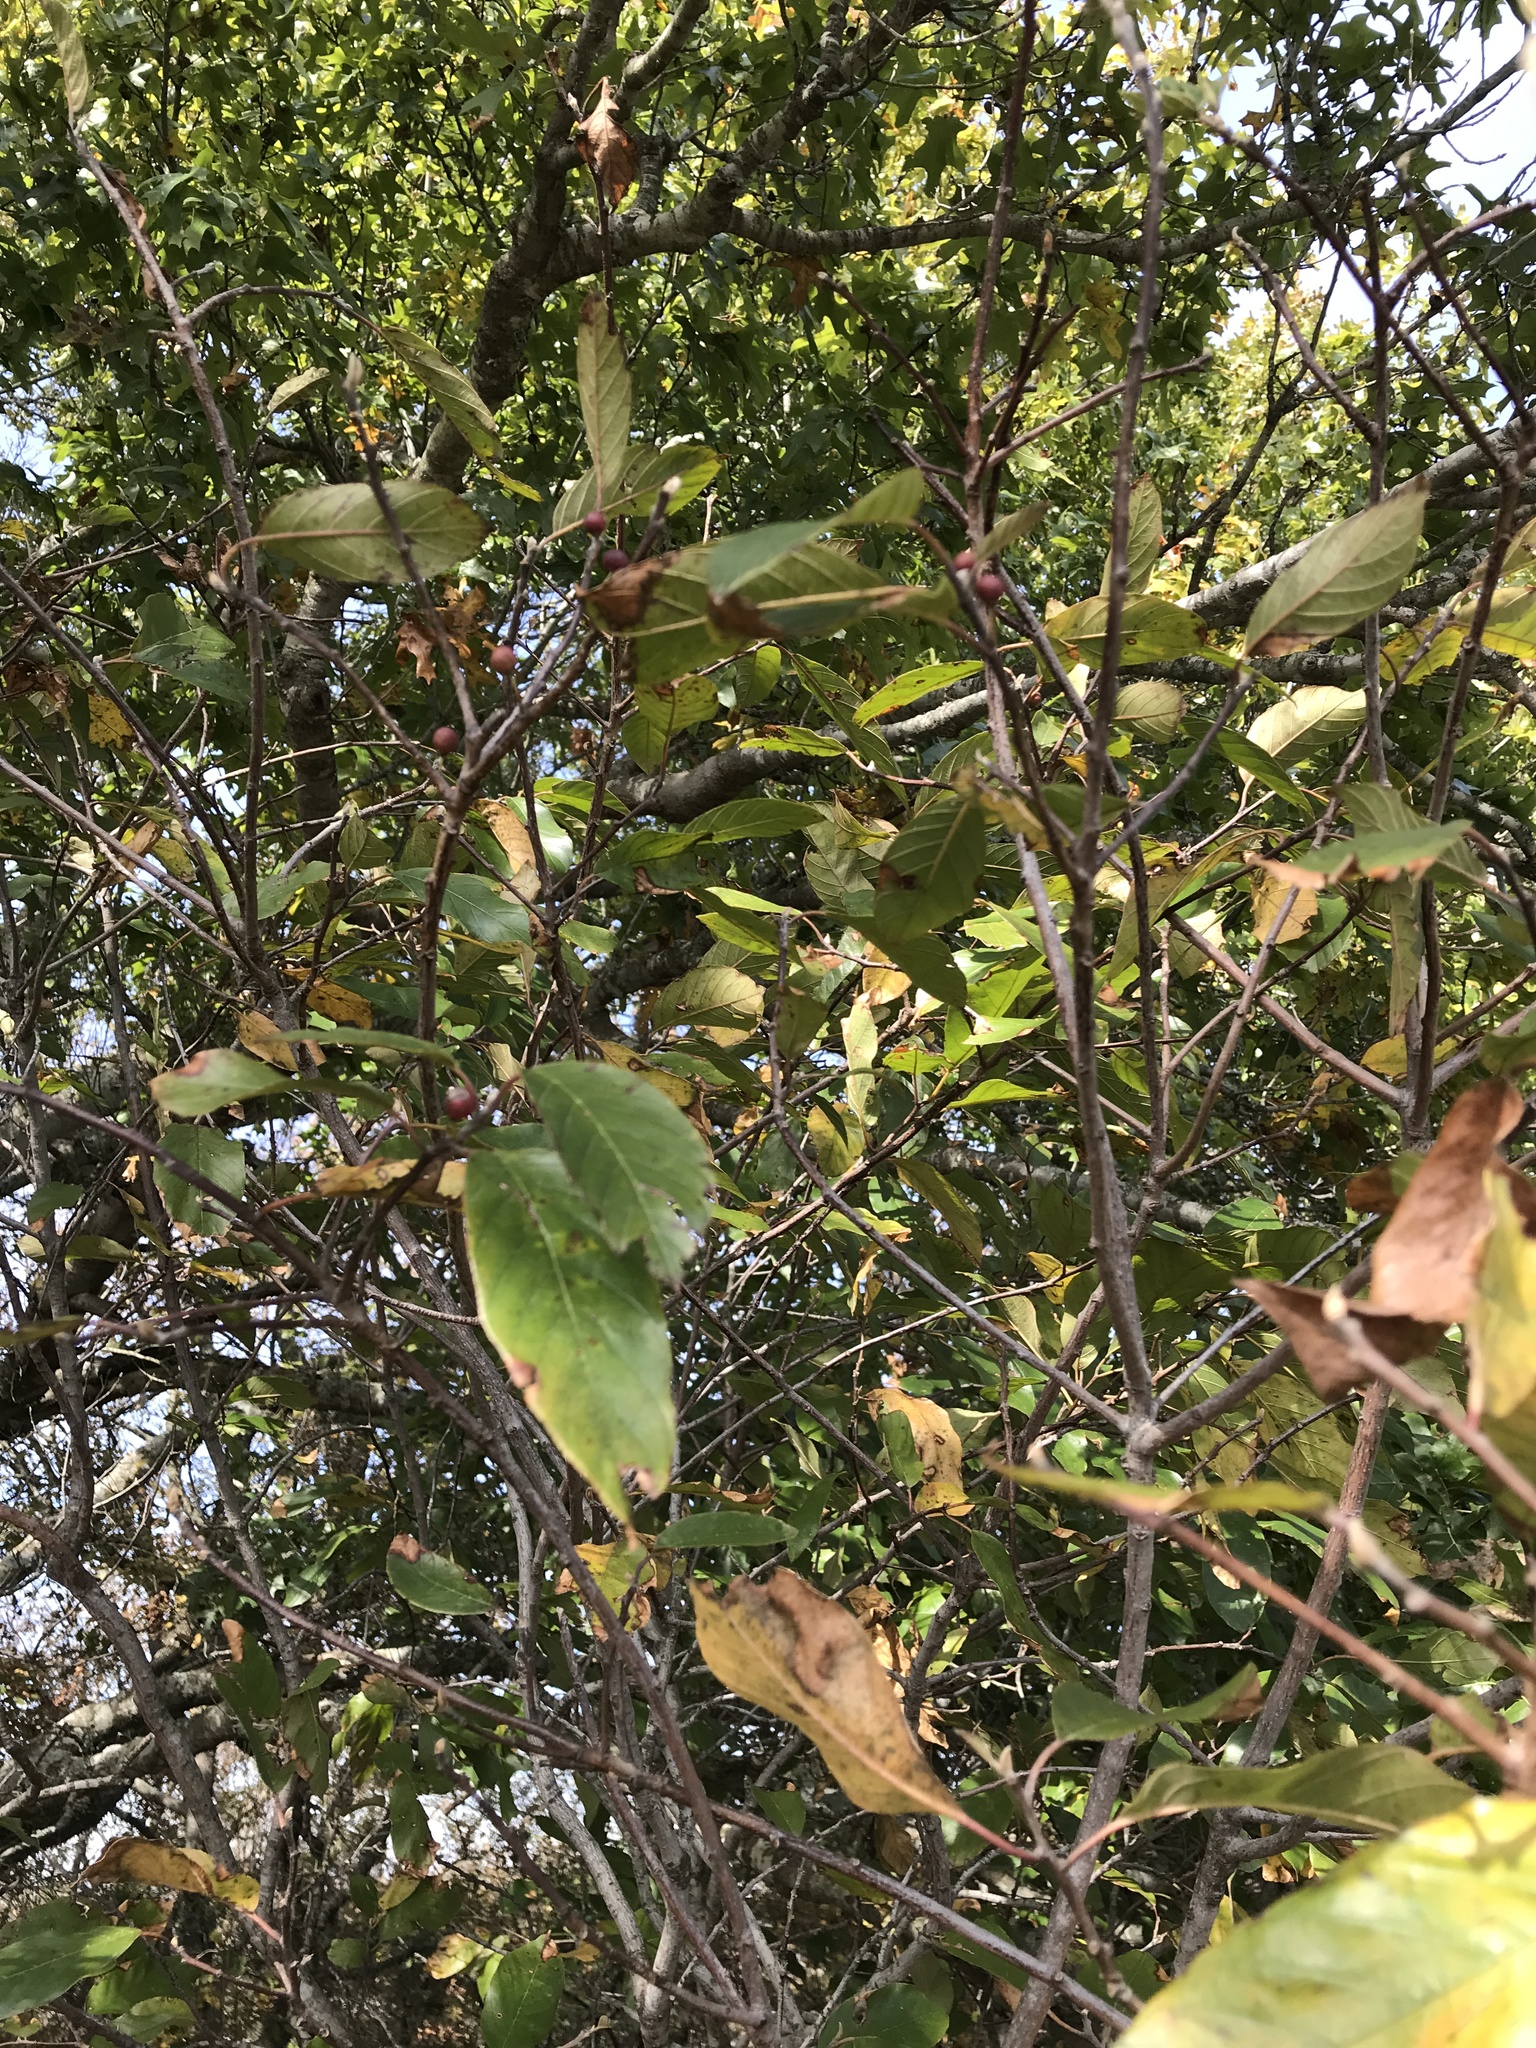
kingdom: Plantae
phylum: Tracheophyta
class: Magnoliopsida
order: Rosales
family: Rhamnaceae
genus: Frangula
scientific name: Frangula caroliniana
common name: Carolina buckthorn
